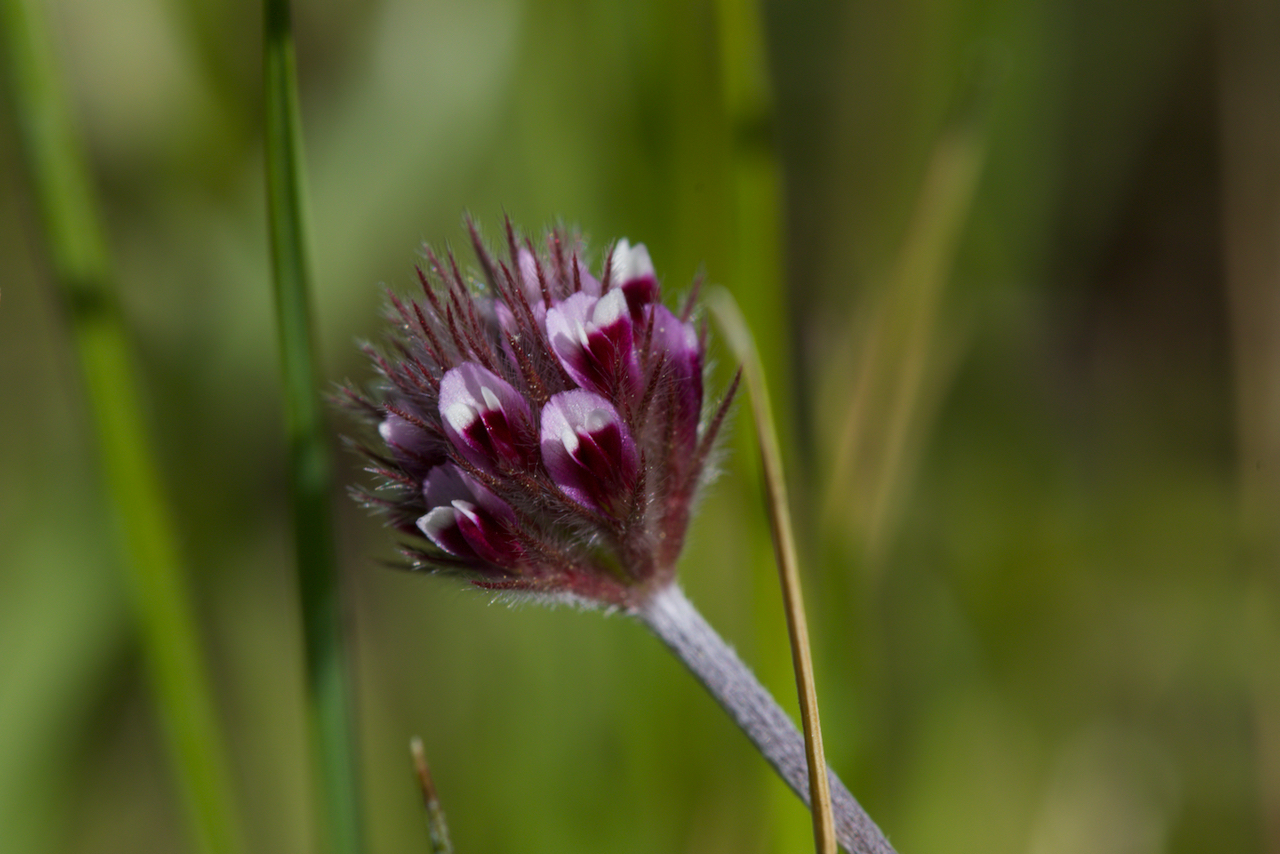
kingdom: Plantae
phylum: Tracheophyta
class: Magnoliopsida
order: Fabales
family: Fabaceae
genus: Trifolium
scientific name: Trifolium dichotomum
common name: Branched indian clover
